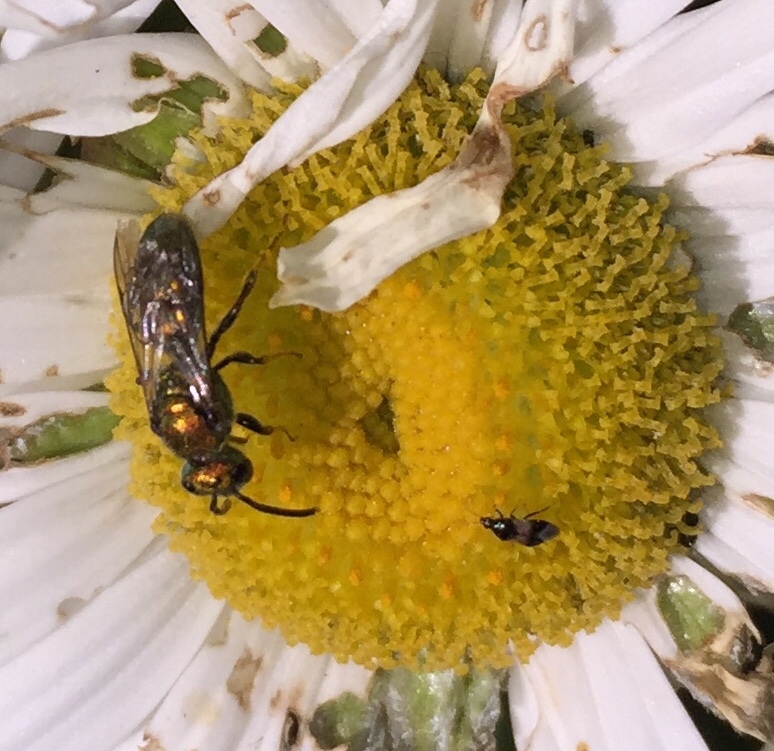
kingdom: Animalia
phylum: Arthropoda
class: Insecta
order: Hymenoptera
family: Halictidae
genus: Augochlora
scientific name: Augochlora pura
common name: Pure green sweat bee
